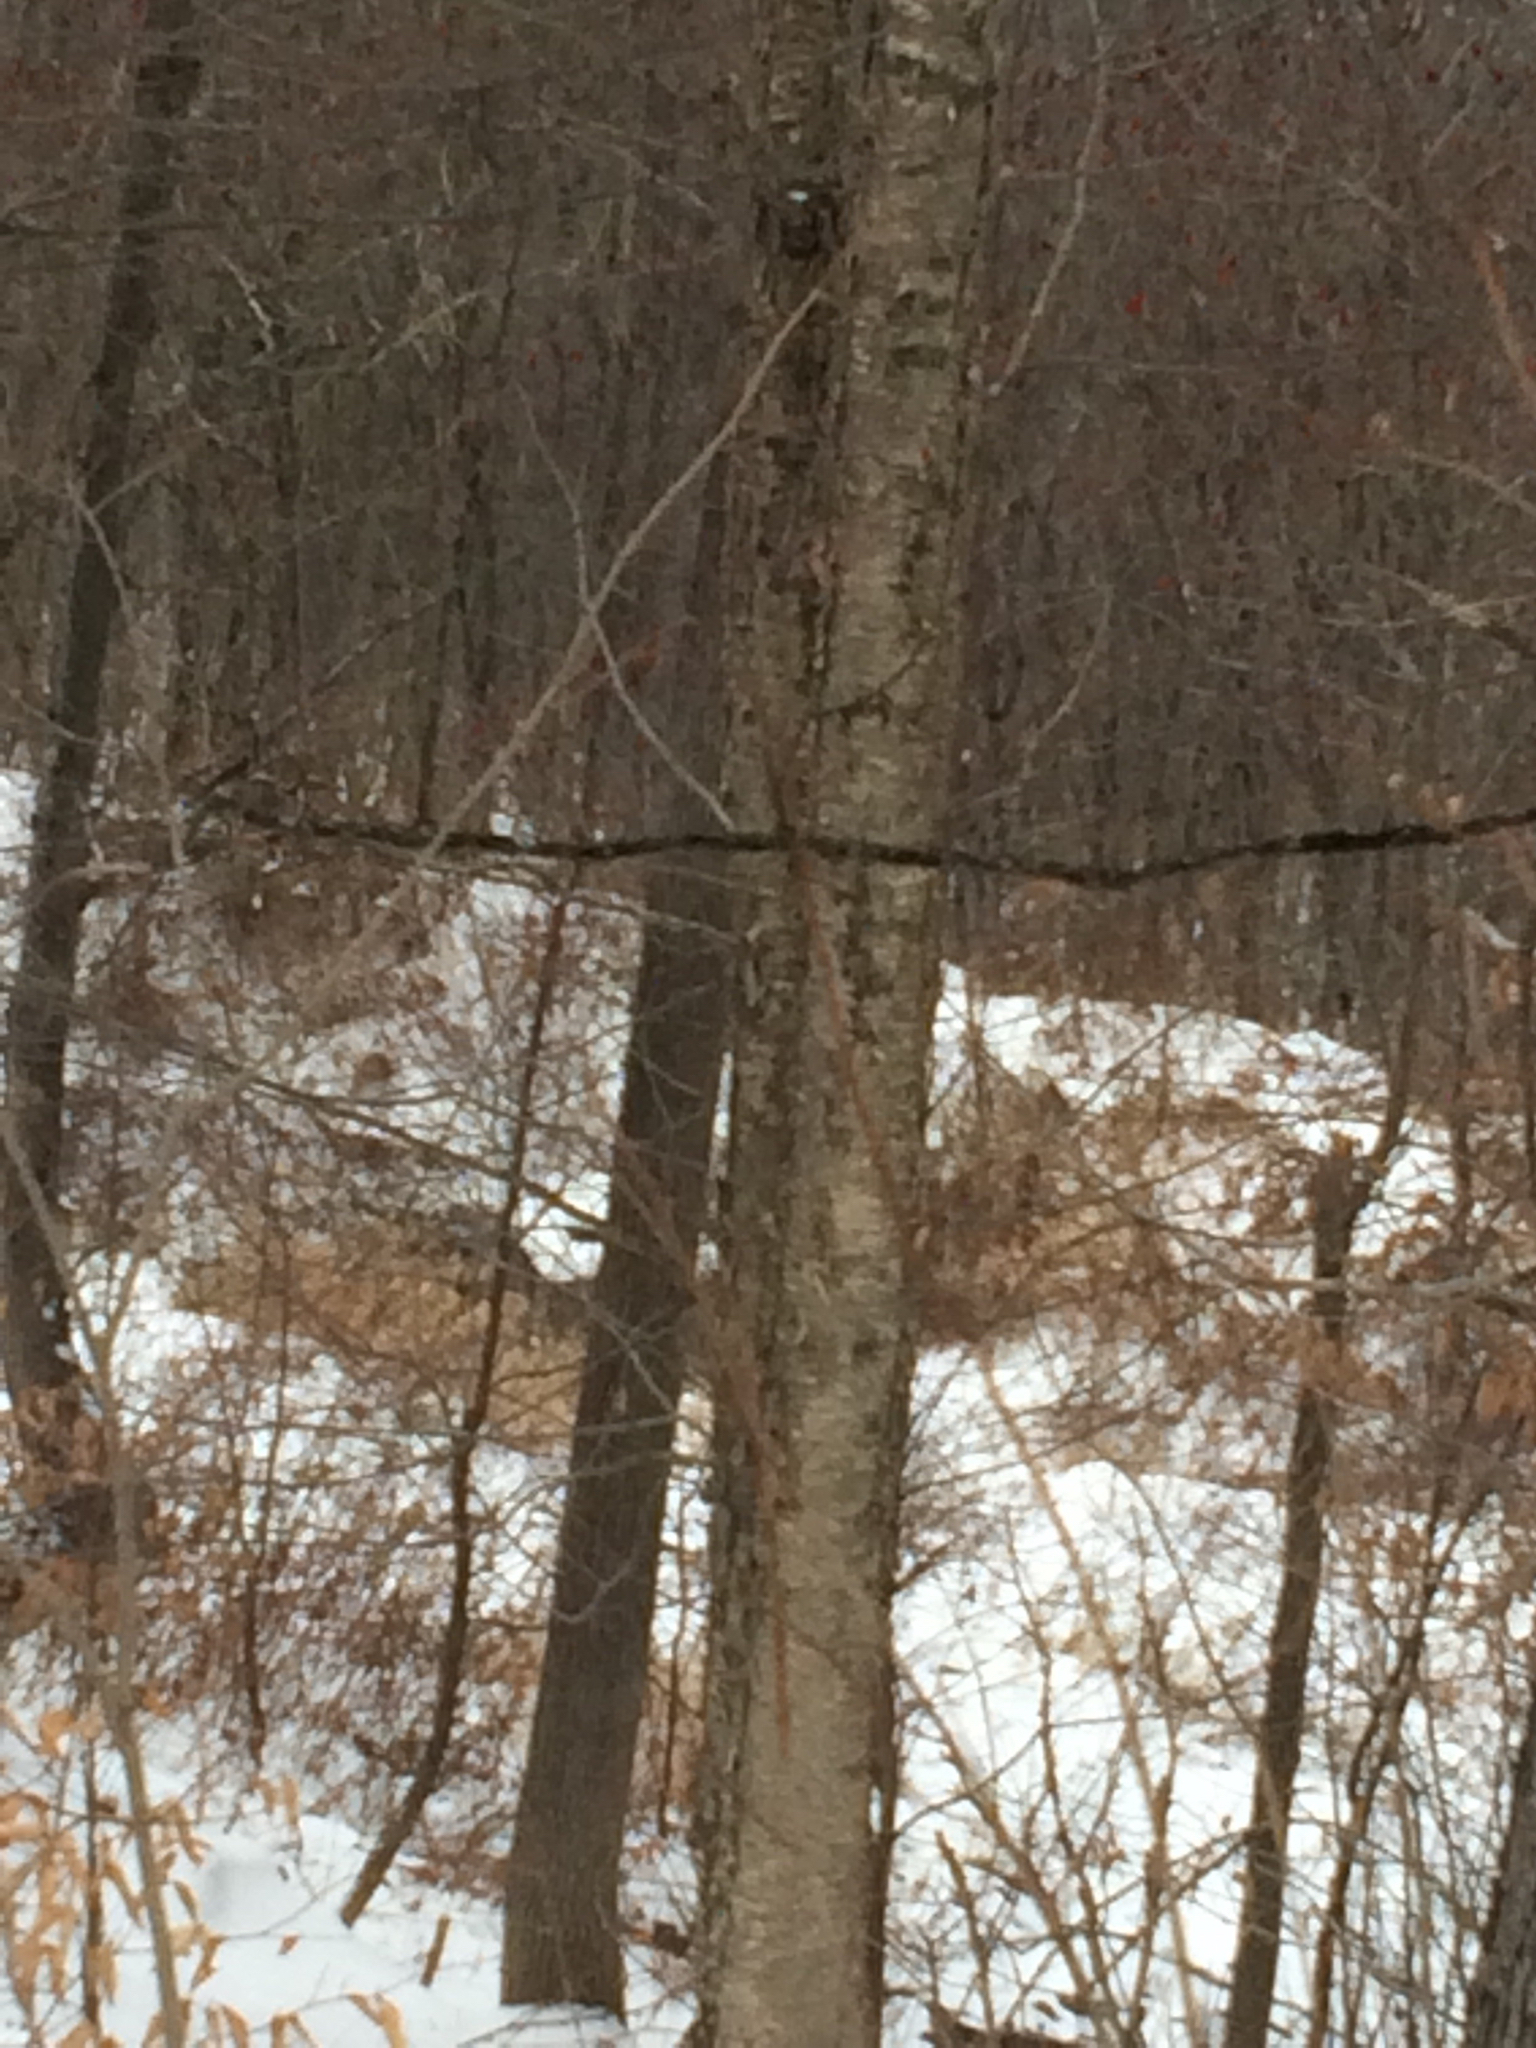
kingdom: Plantae
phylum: Tracheophyta
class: Magnoliopsida
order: Fagales
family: Betulaceae
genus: Betula
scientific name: Betula alleghaniensis
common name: Yellow birch
